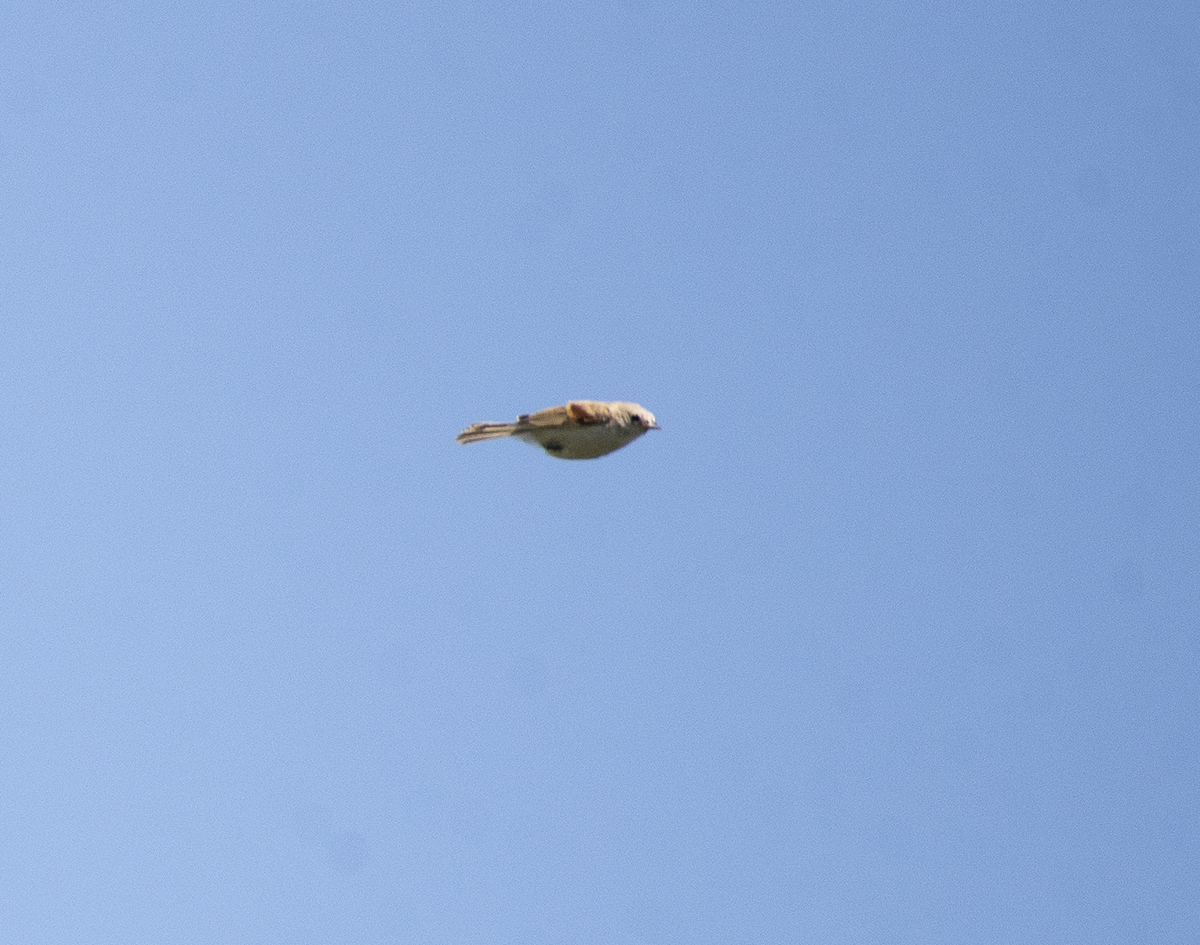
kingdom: Animalia
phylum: Chordata
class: Aves
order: Passeriformes
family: Remizidae
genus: Remiz
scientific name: Remiz pendulinus
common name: Eurasian penduline tit
